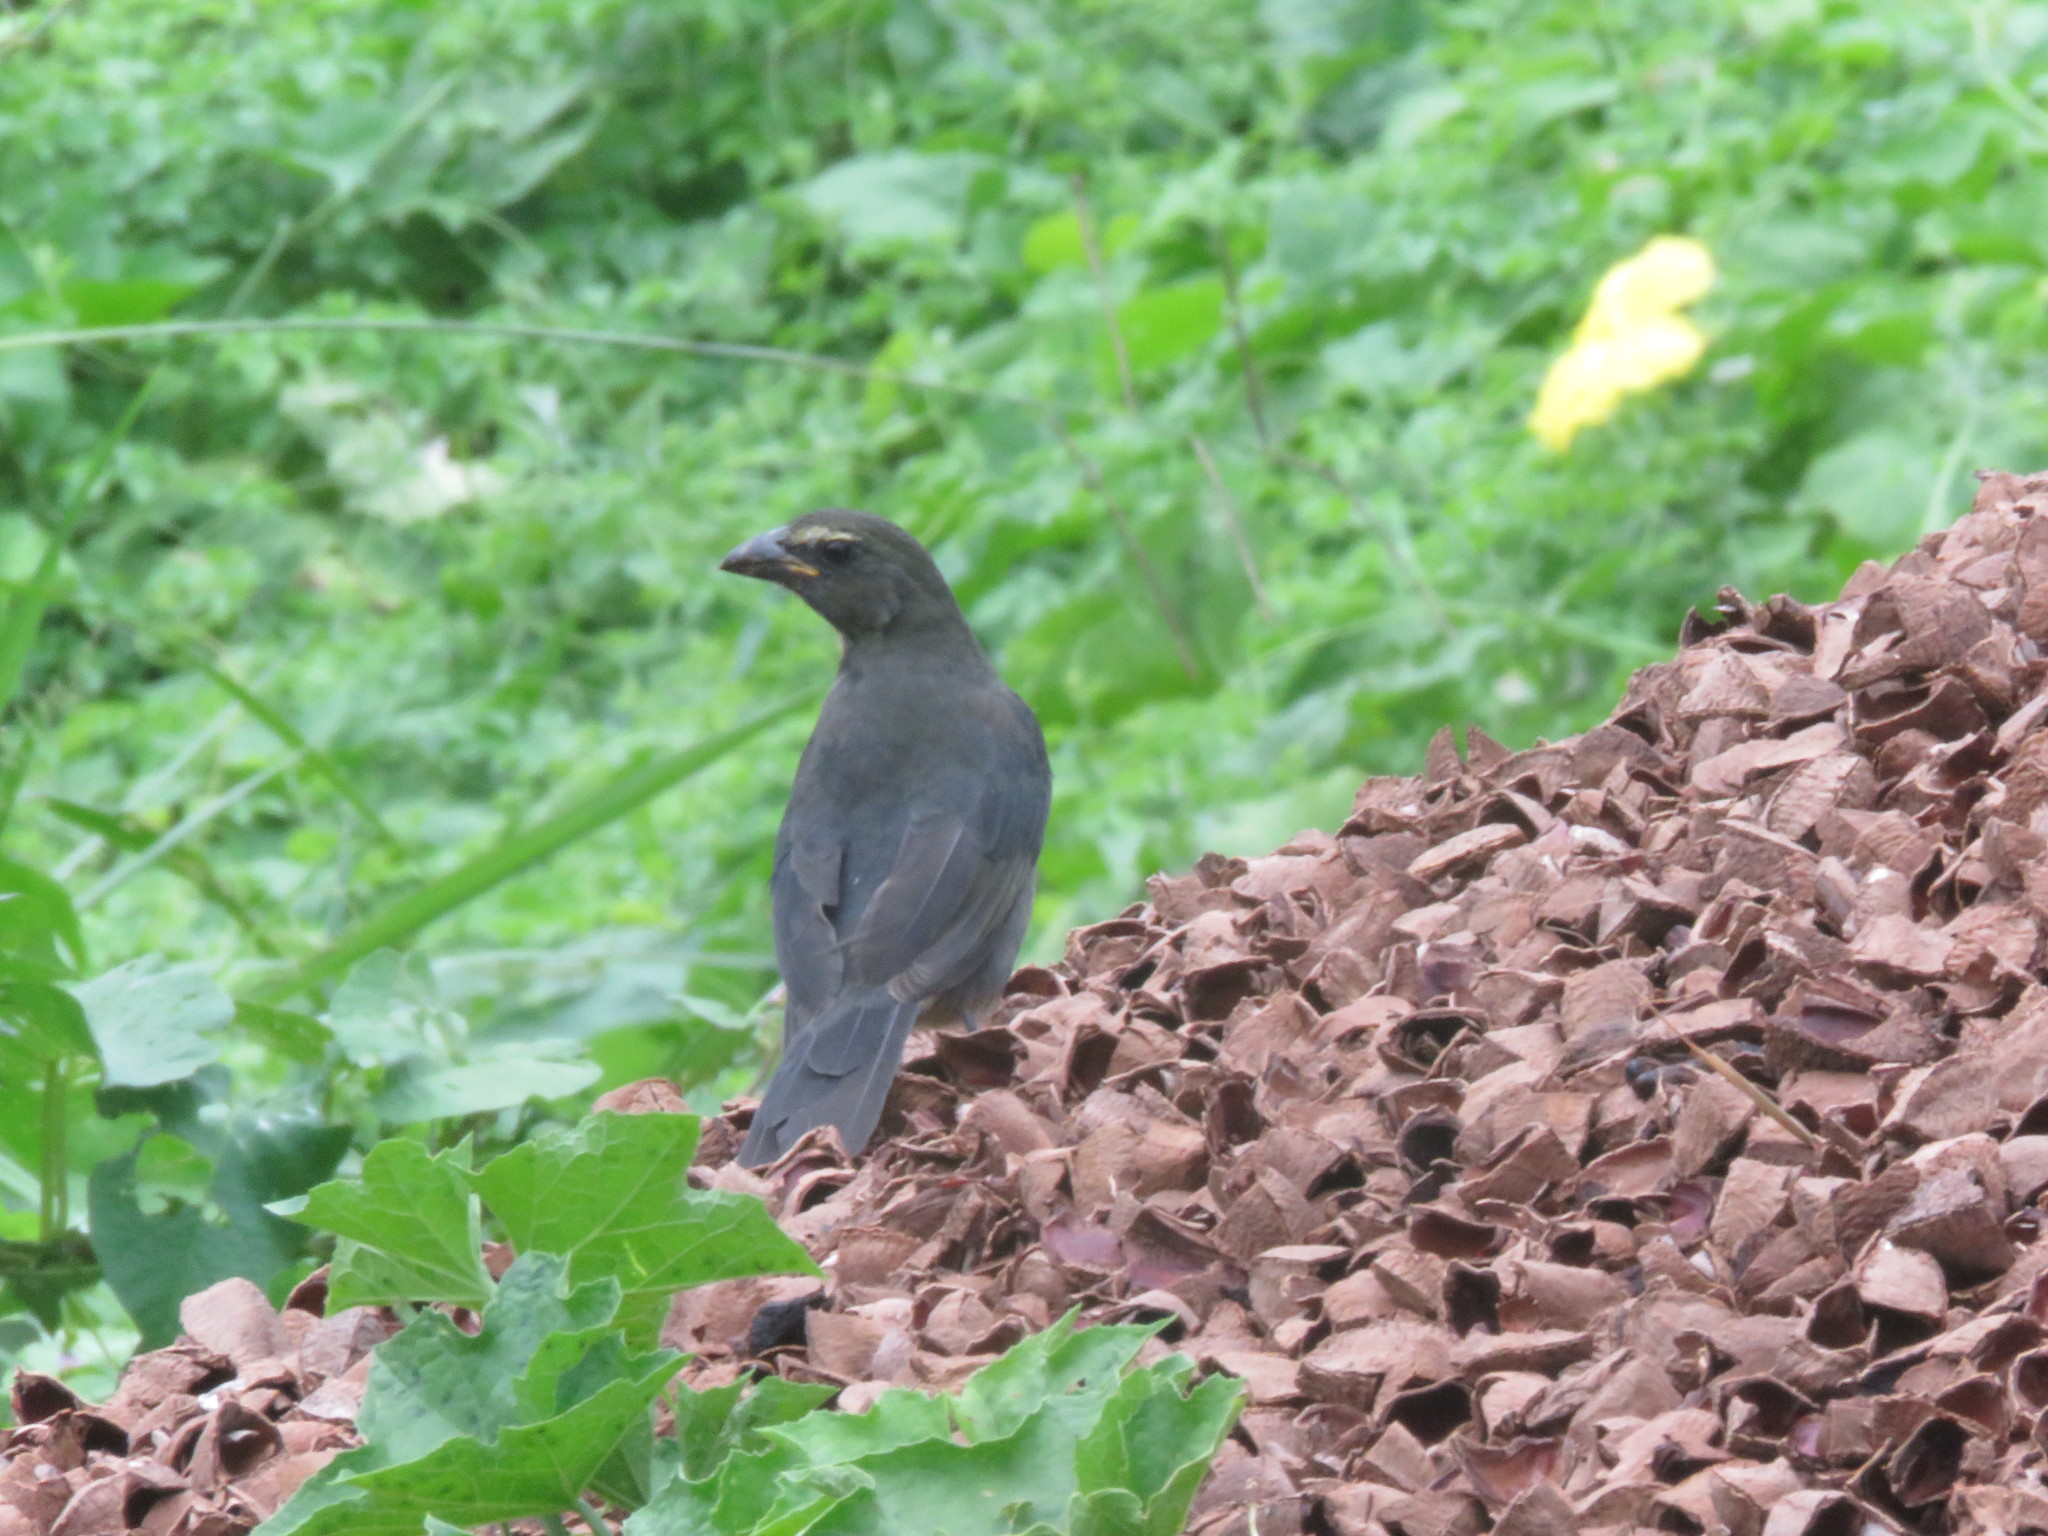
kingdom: Animalia
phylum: Chordata
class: Aves
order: Passeriformes
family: Thraupidae
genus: Saltator
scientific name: Saltator coerulescens
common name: Grayish saltator
